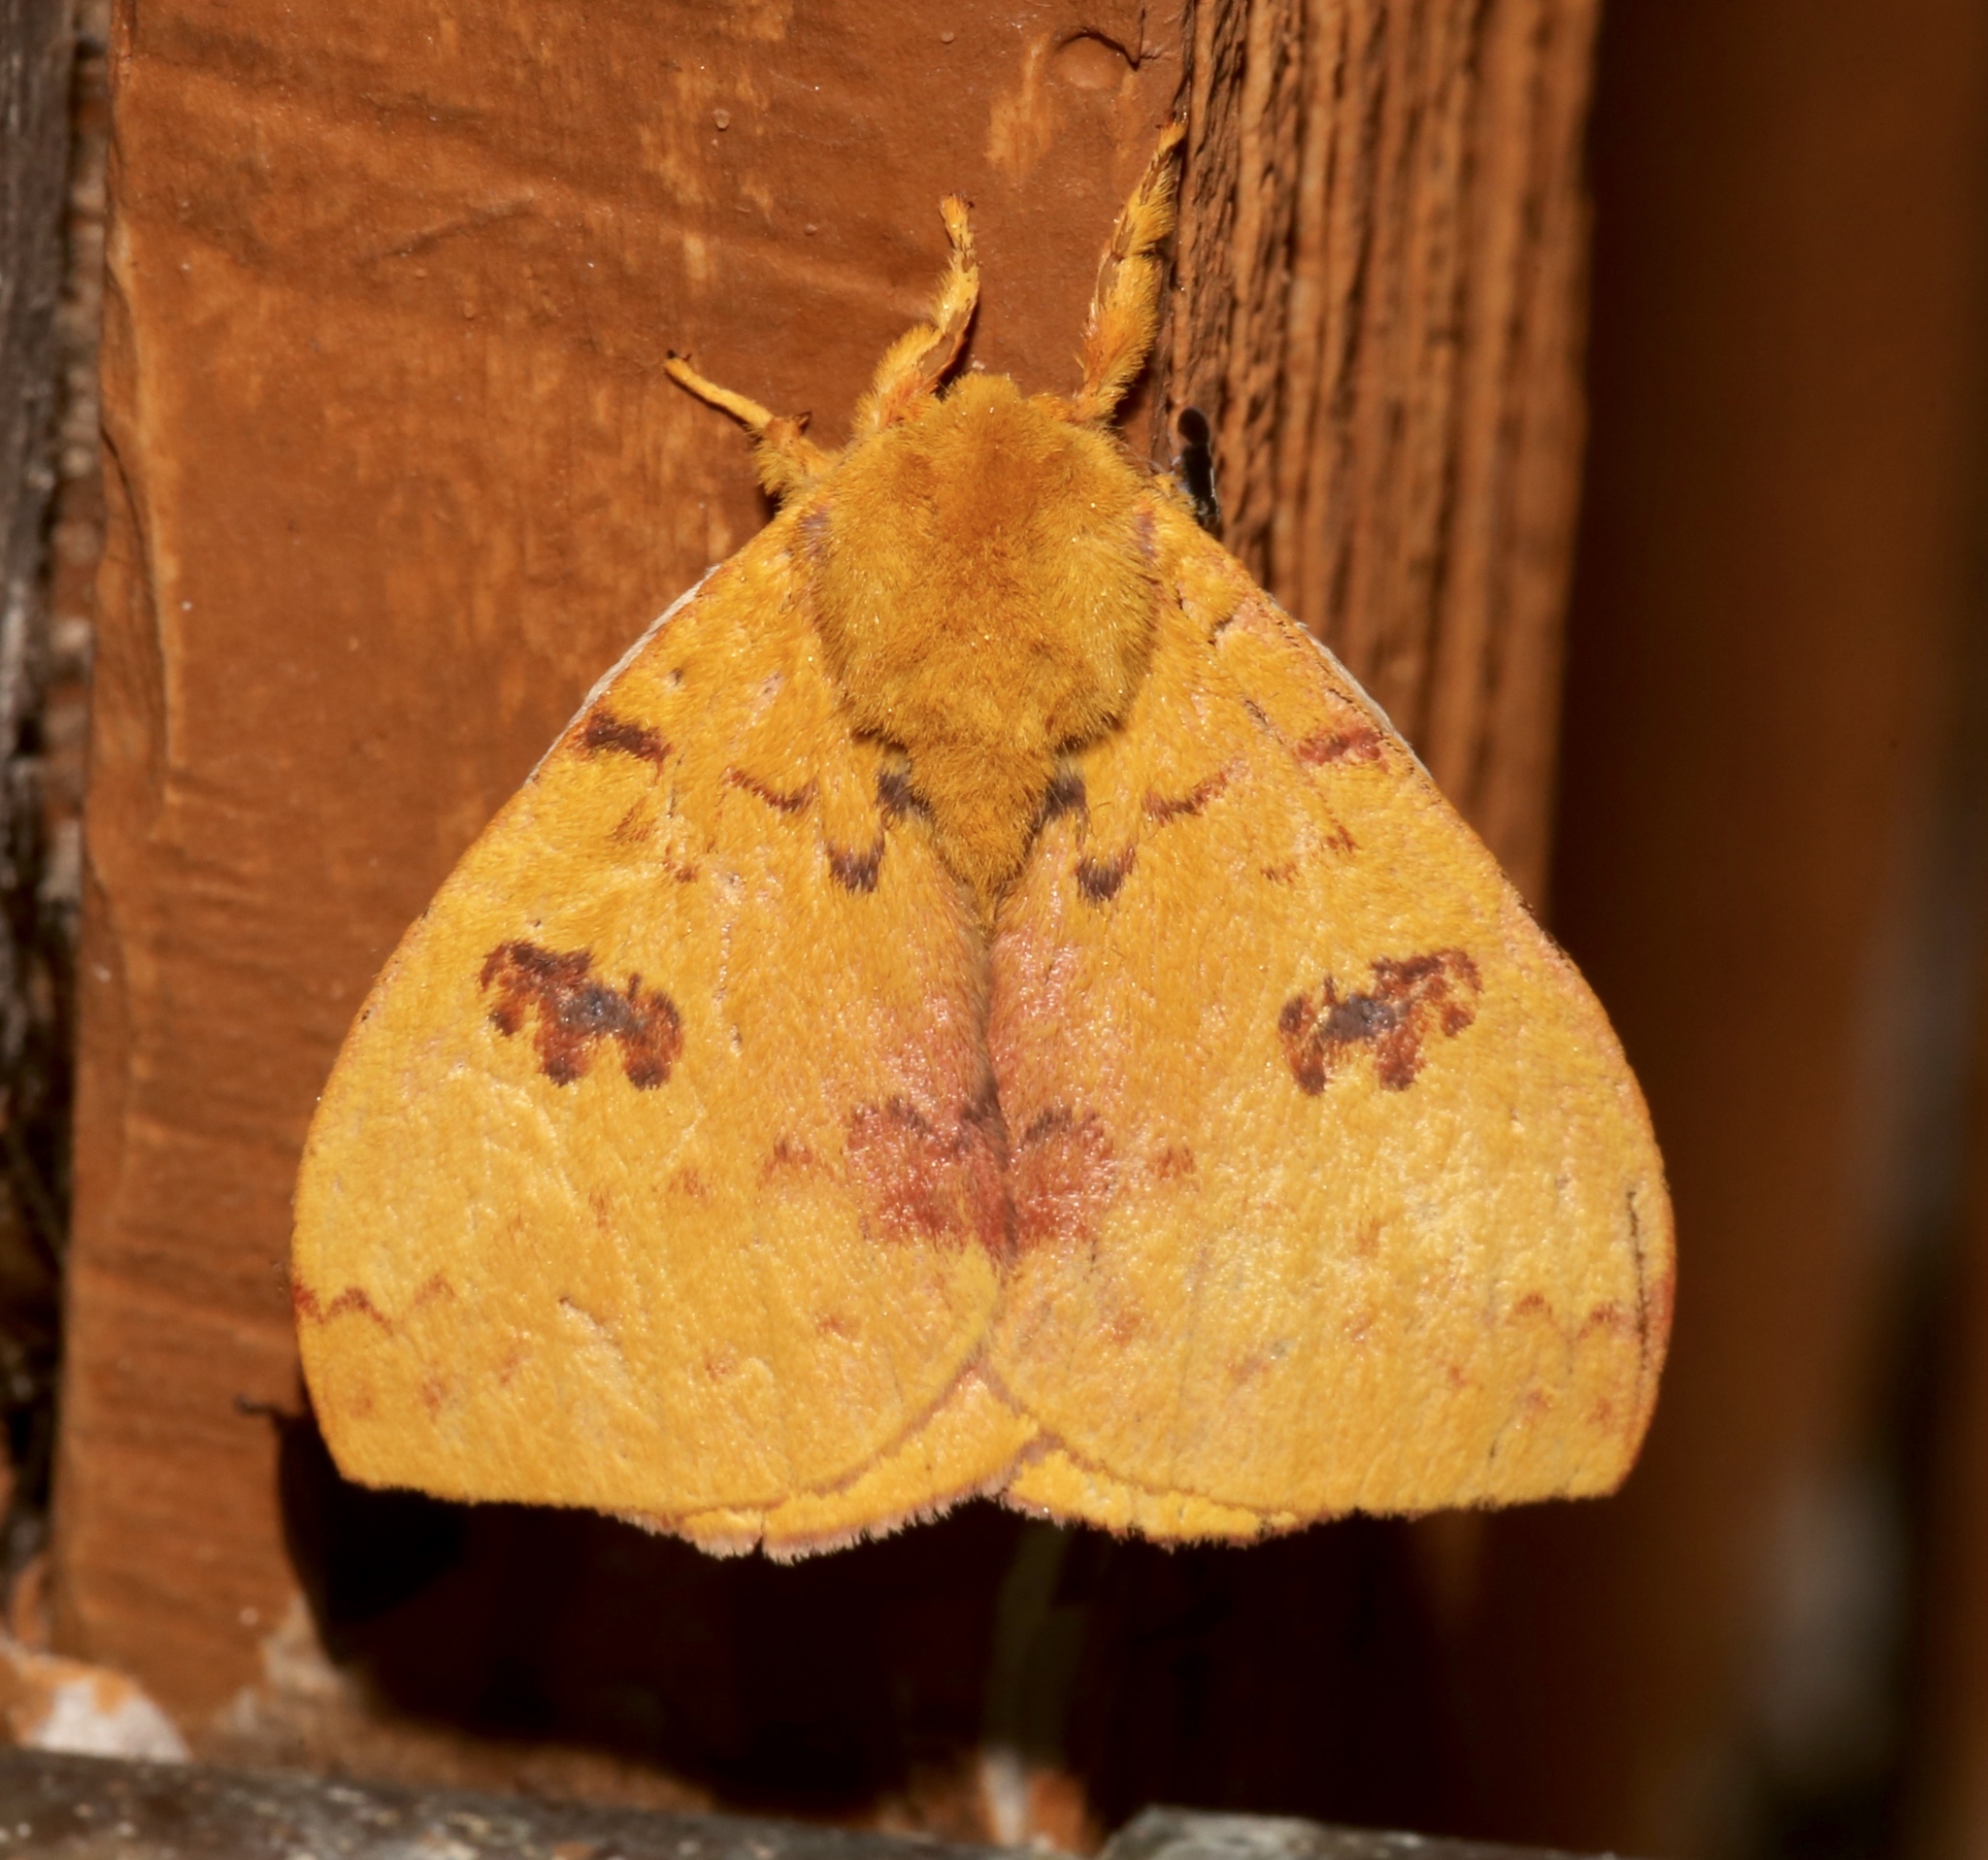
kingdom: Animalia
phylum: Arthropoda
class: Insecta
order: Lepidoptera
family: Saturniidae
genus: Automeris
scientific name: Automeris io
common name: Io moth
